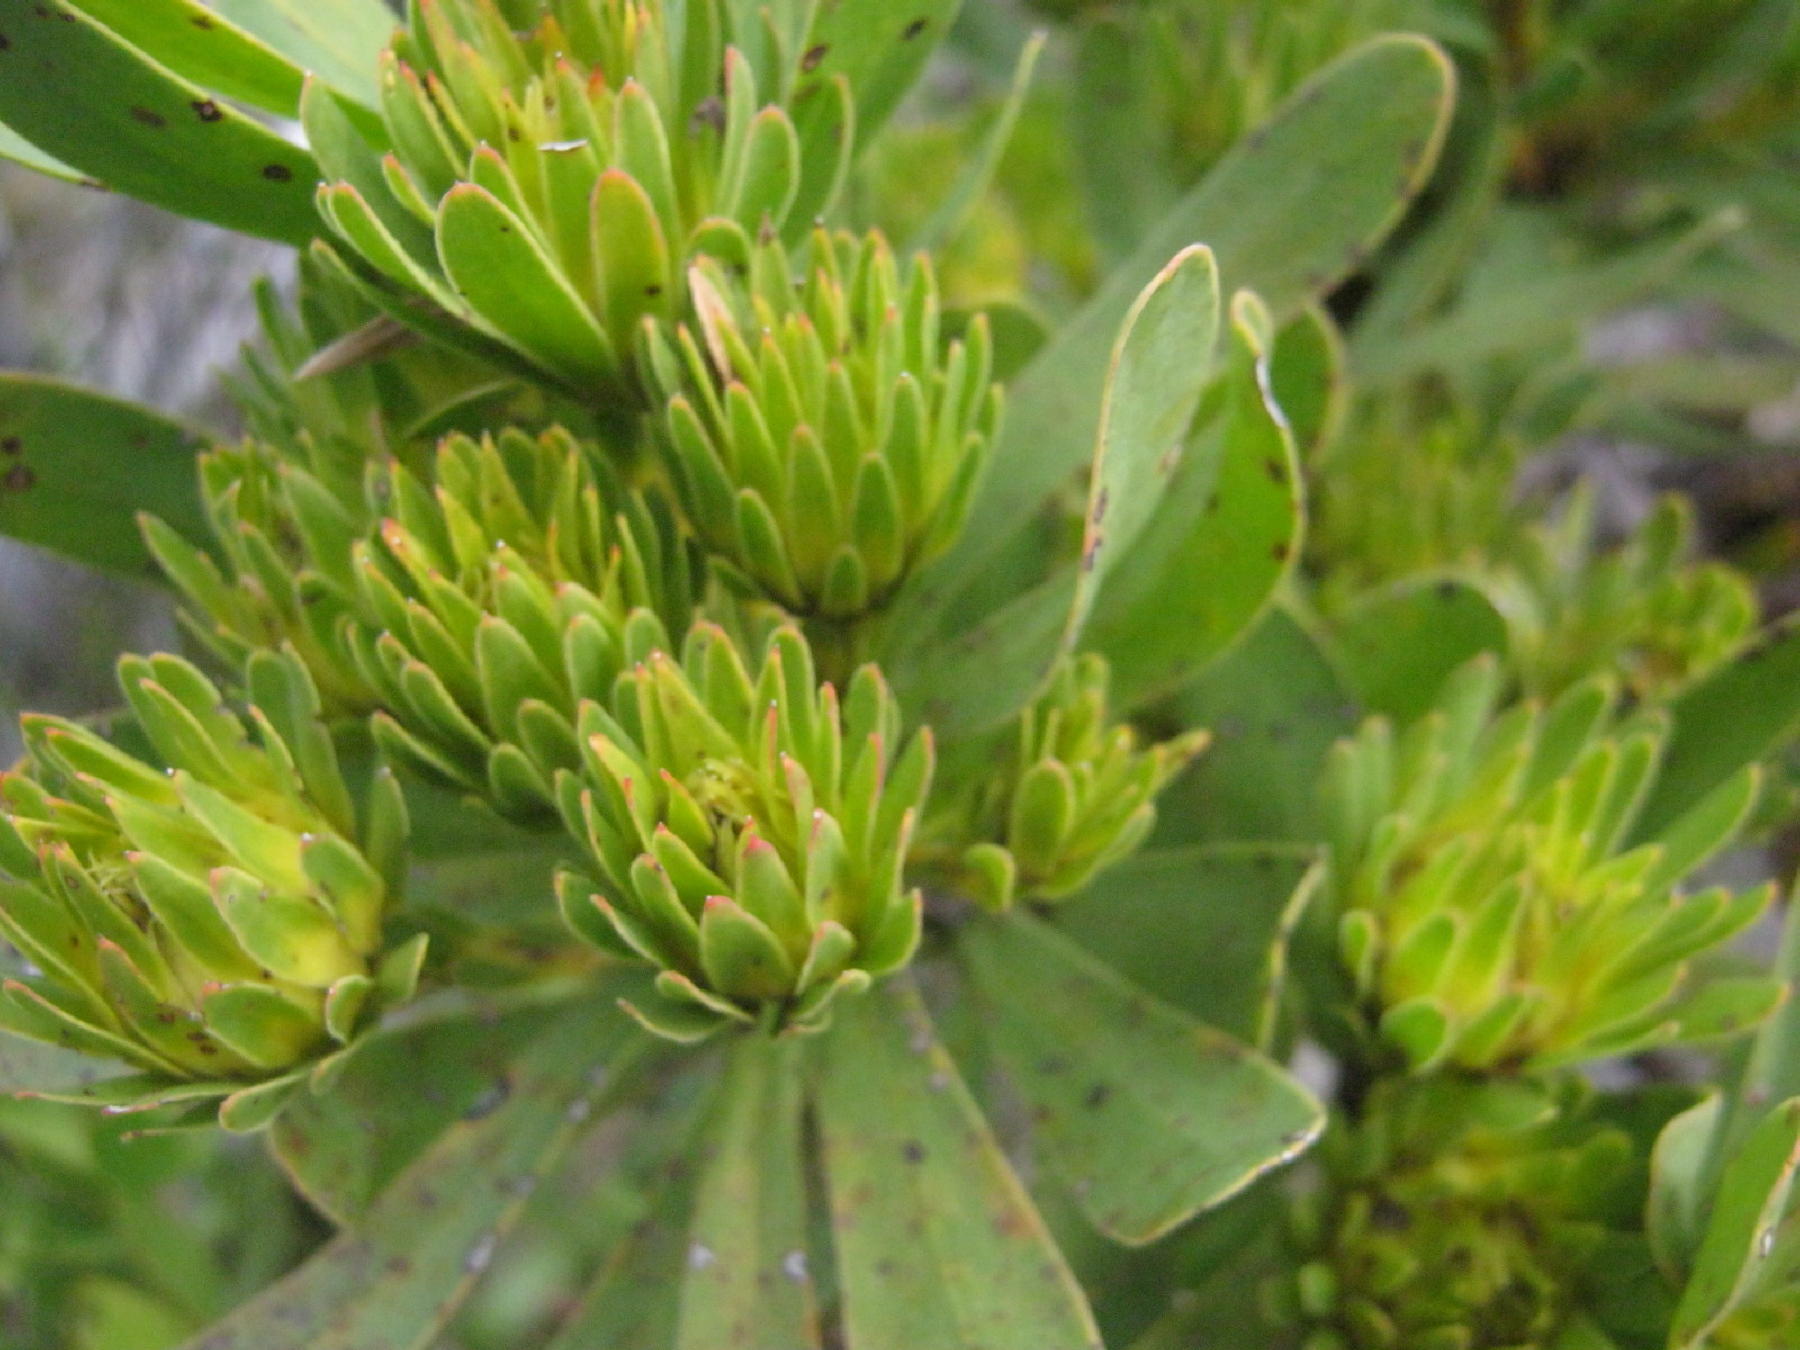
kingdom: Plantae
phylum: Tracheophyta
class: Magnoliopsida
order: Proteales
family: Proteaceae
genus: Aulax
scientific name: Aulax umbellata
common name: Broad-leaf featherbush
